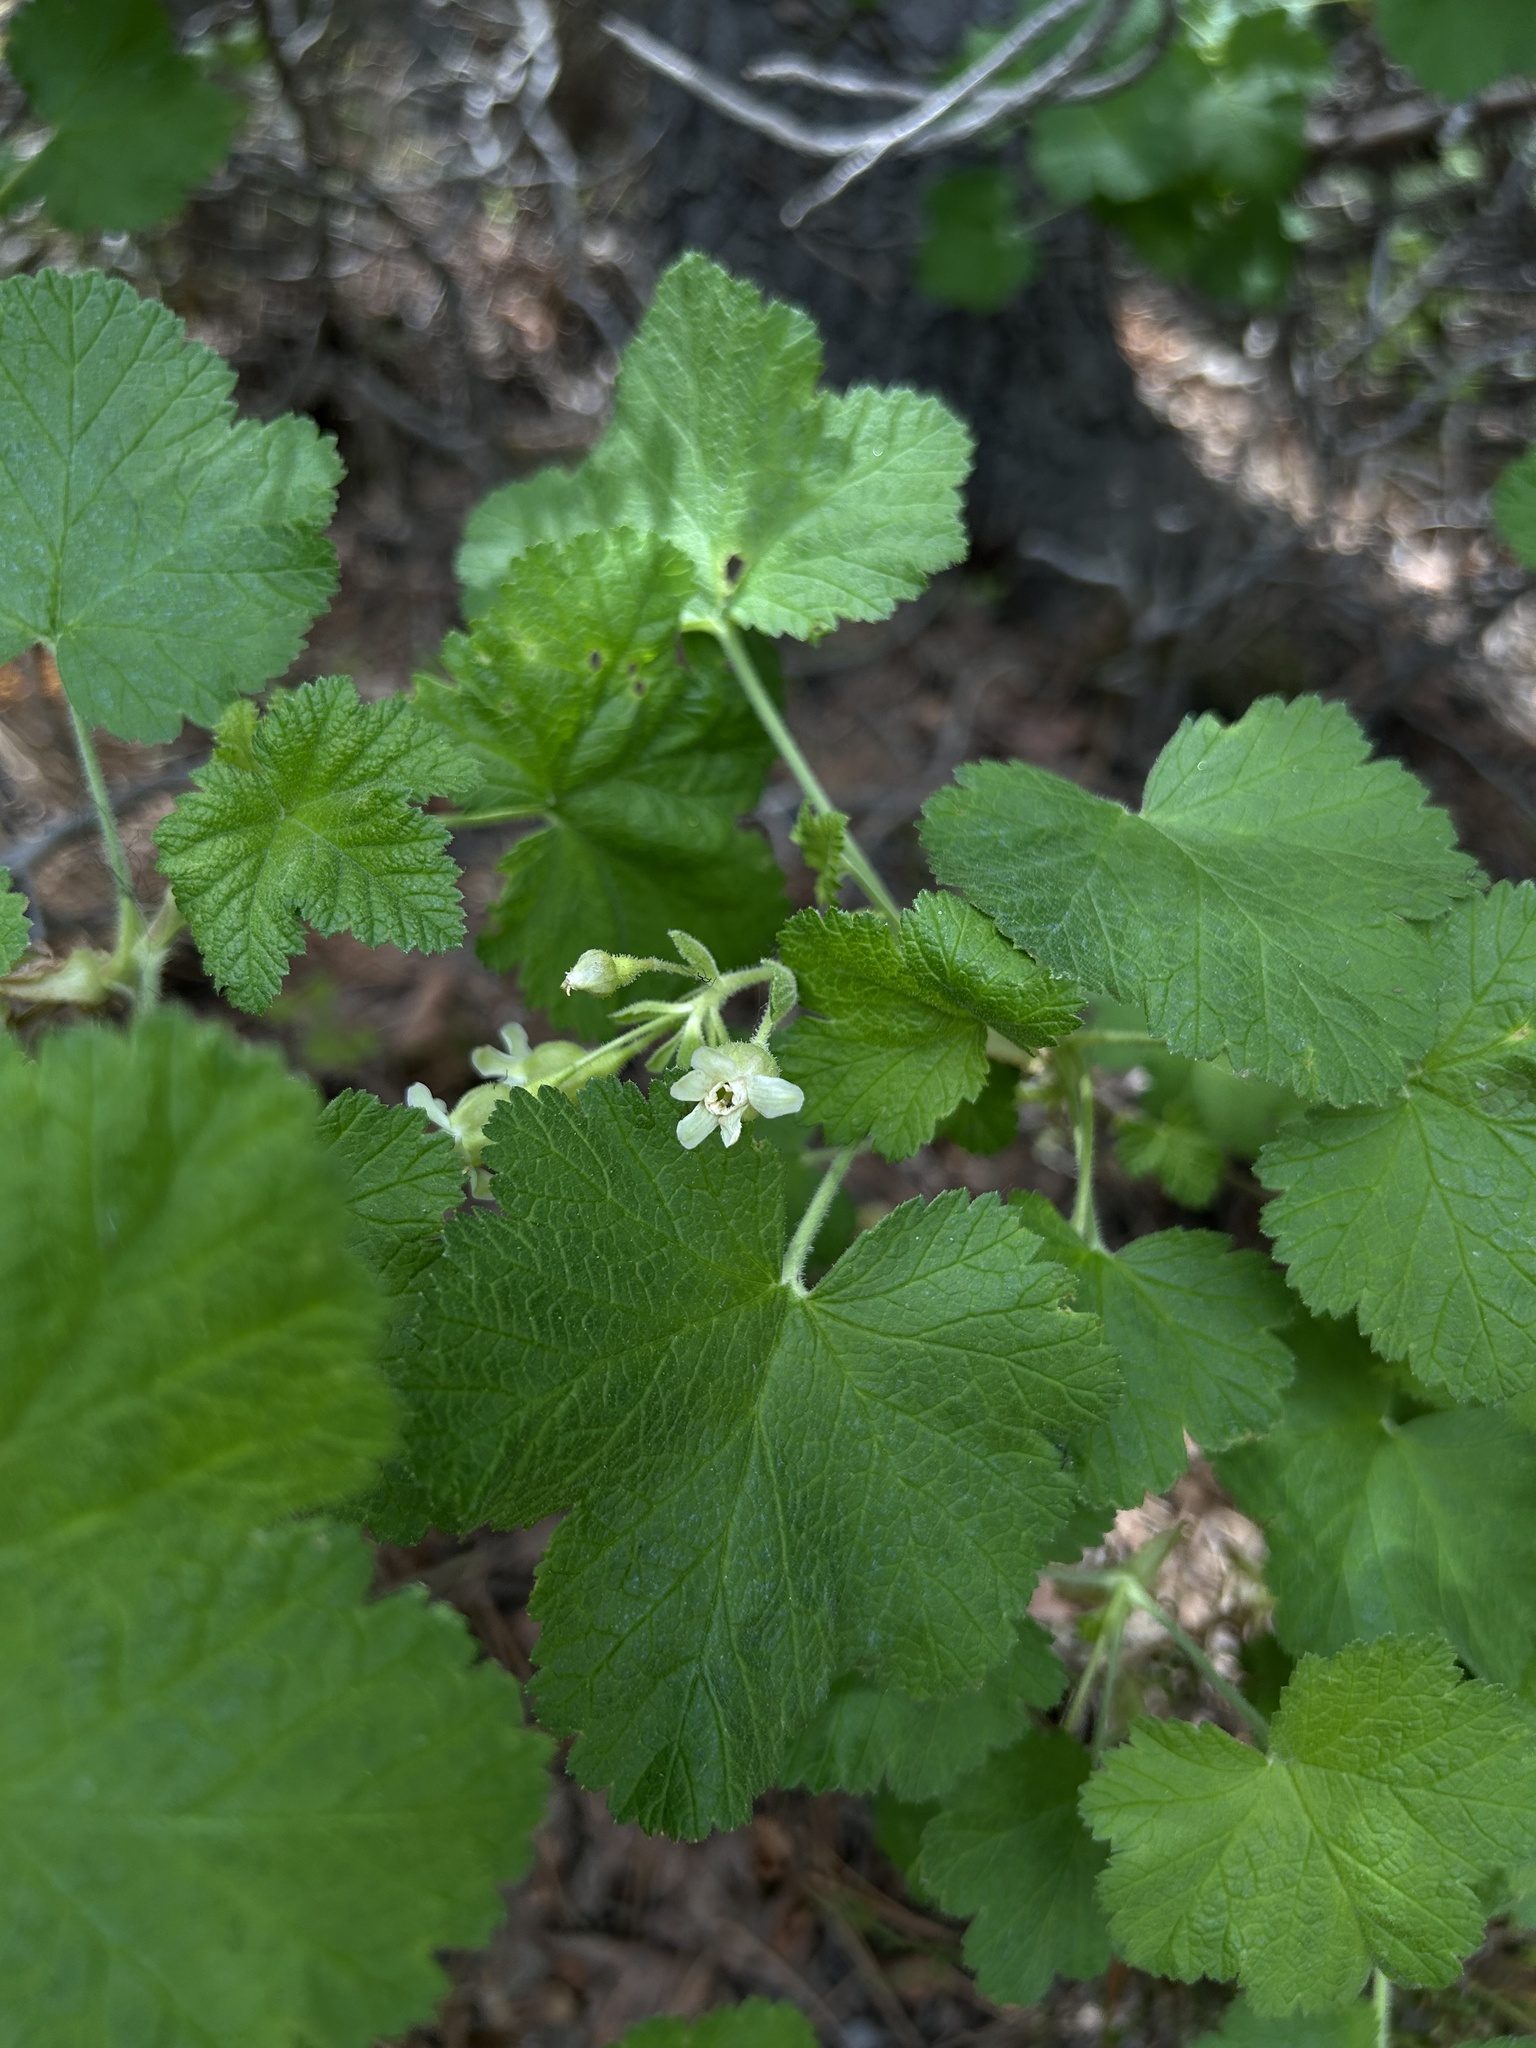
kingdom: Plantae
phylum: Tracheophyta
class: Magnoliopsida
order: Saxifragales
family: Grossulariaceae
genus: Ribes
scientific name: Ribes viscosissimum
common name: Sticky currant
